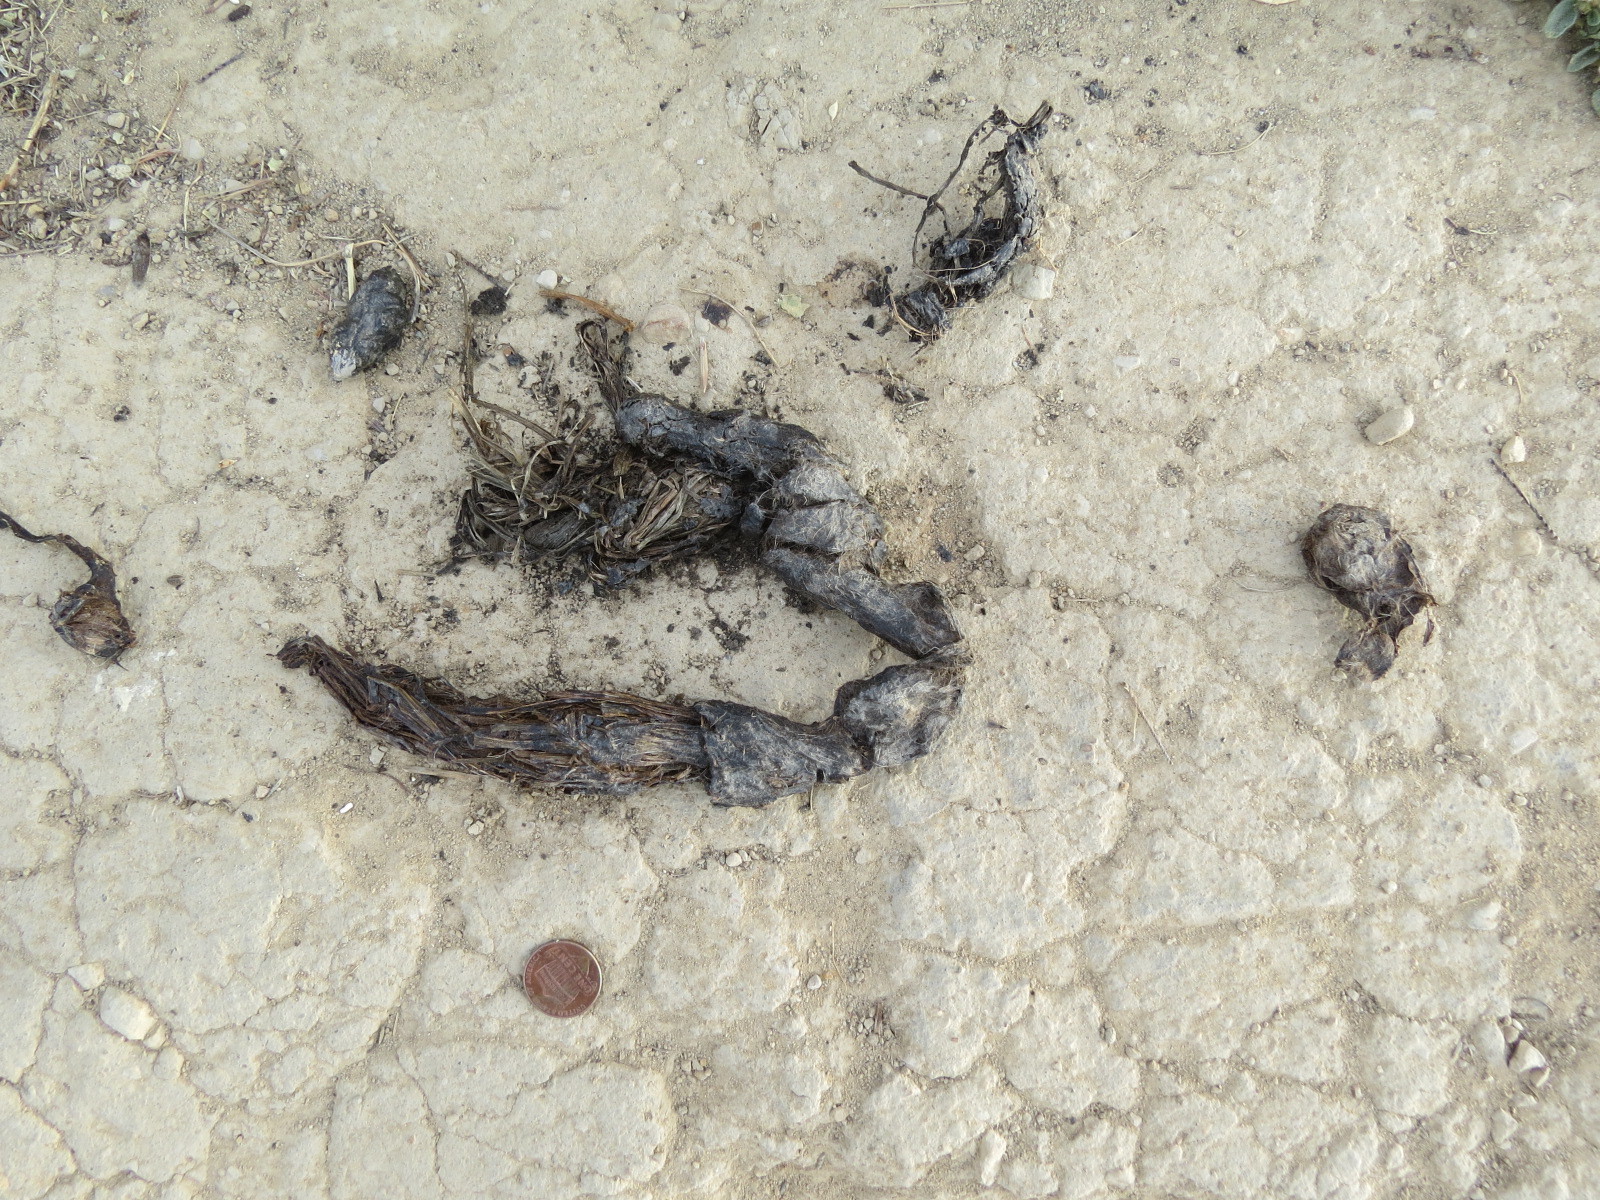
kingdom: Animalia
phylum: Chordata
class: Mammalia
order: Carnivora
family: Canidae
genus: Canis
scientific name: Canis latrans
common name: Coyote
